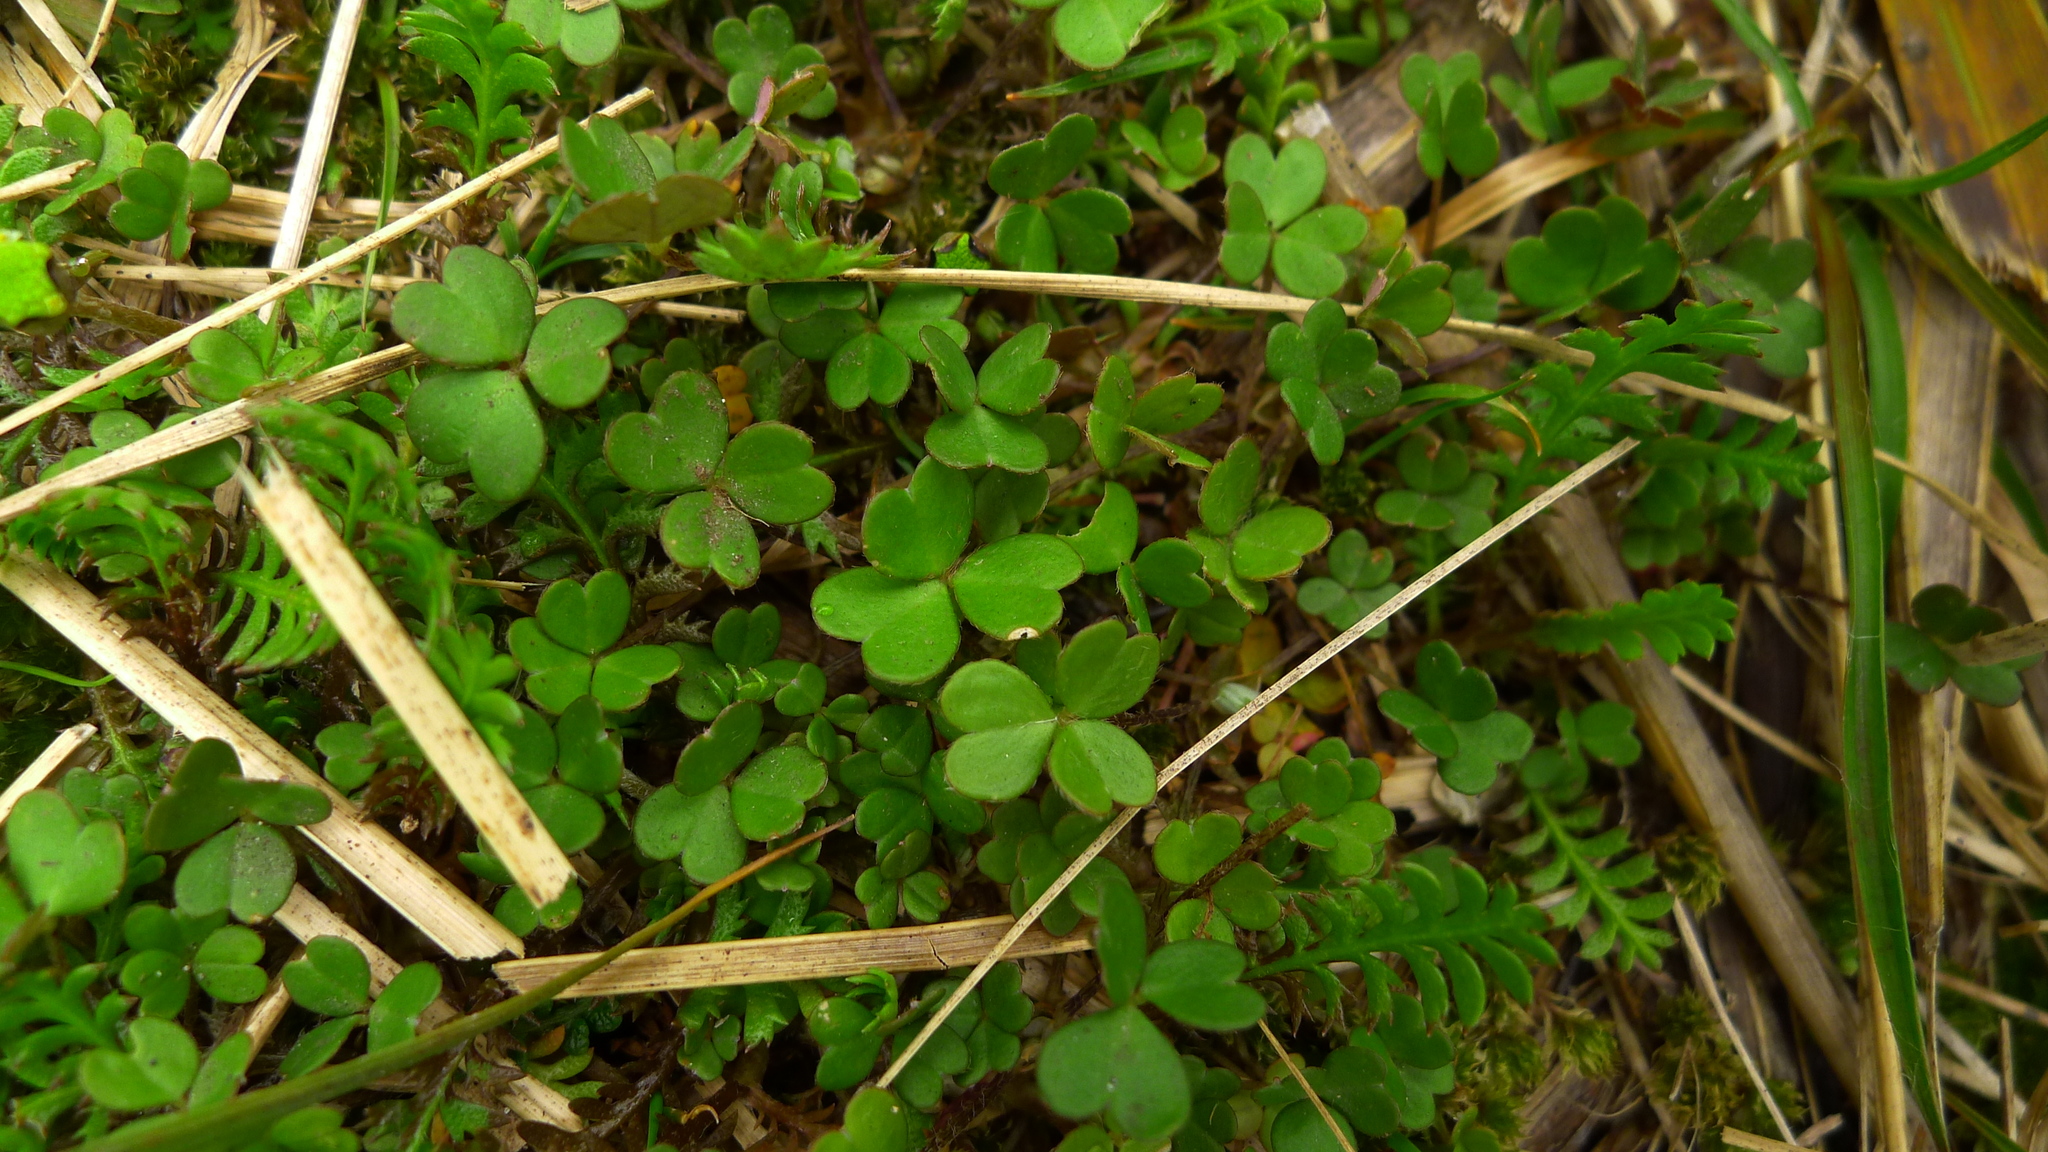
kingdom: Plantae
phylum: Tracheophyta
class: Magnoliopsida
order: Oxalidales
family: Oxalidaceae
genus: Oxalis
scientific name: Oxalis magellanica
